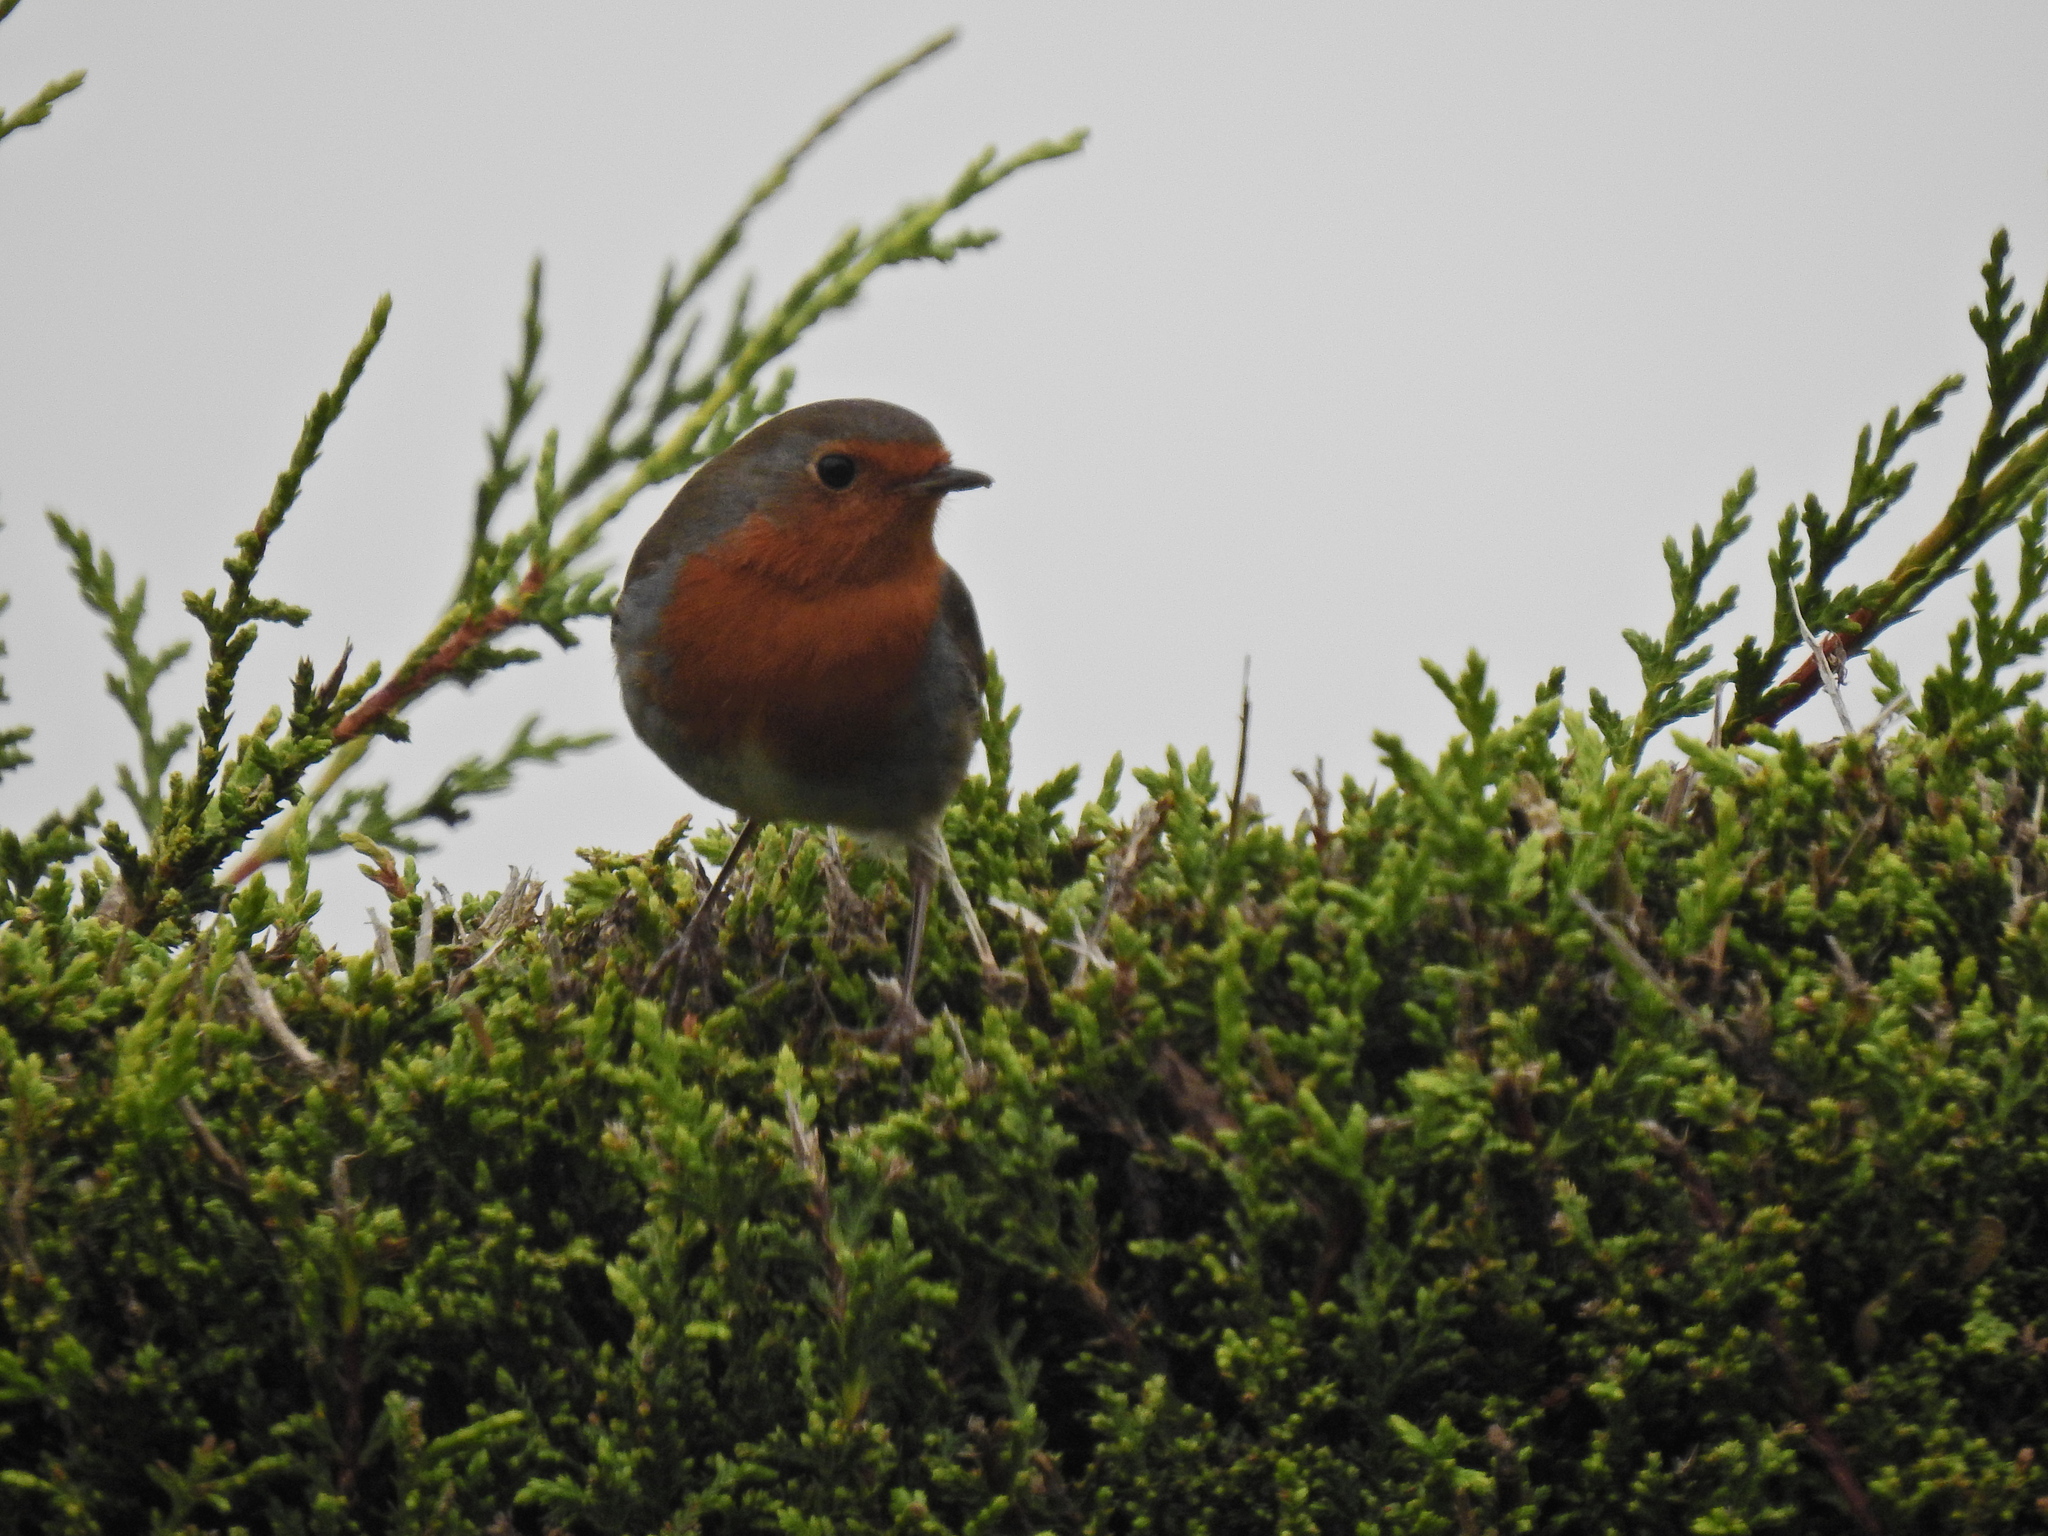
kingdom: Animalia
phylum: Chordata
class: Aves
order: Passeriformes
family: Muscicapidae
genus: Erithacus
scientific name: Erithacus rubecula
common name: European robin
